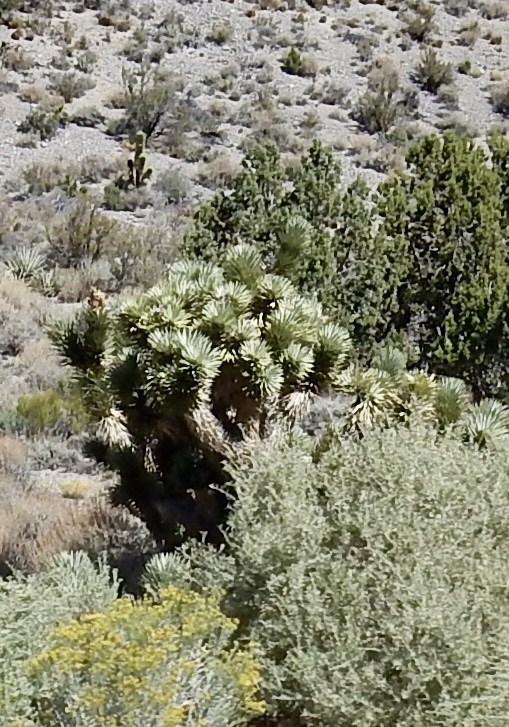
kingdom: Plantae
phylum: Tracheophyta
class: Liliopsida
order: Asparagales
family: Asparagaceae
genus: Yucca
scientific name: Yucca brevifolia
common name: Joshua tree
